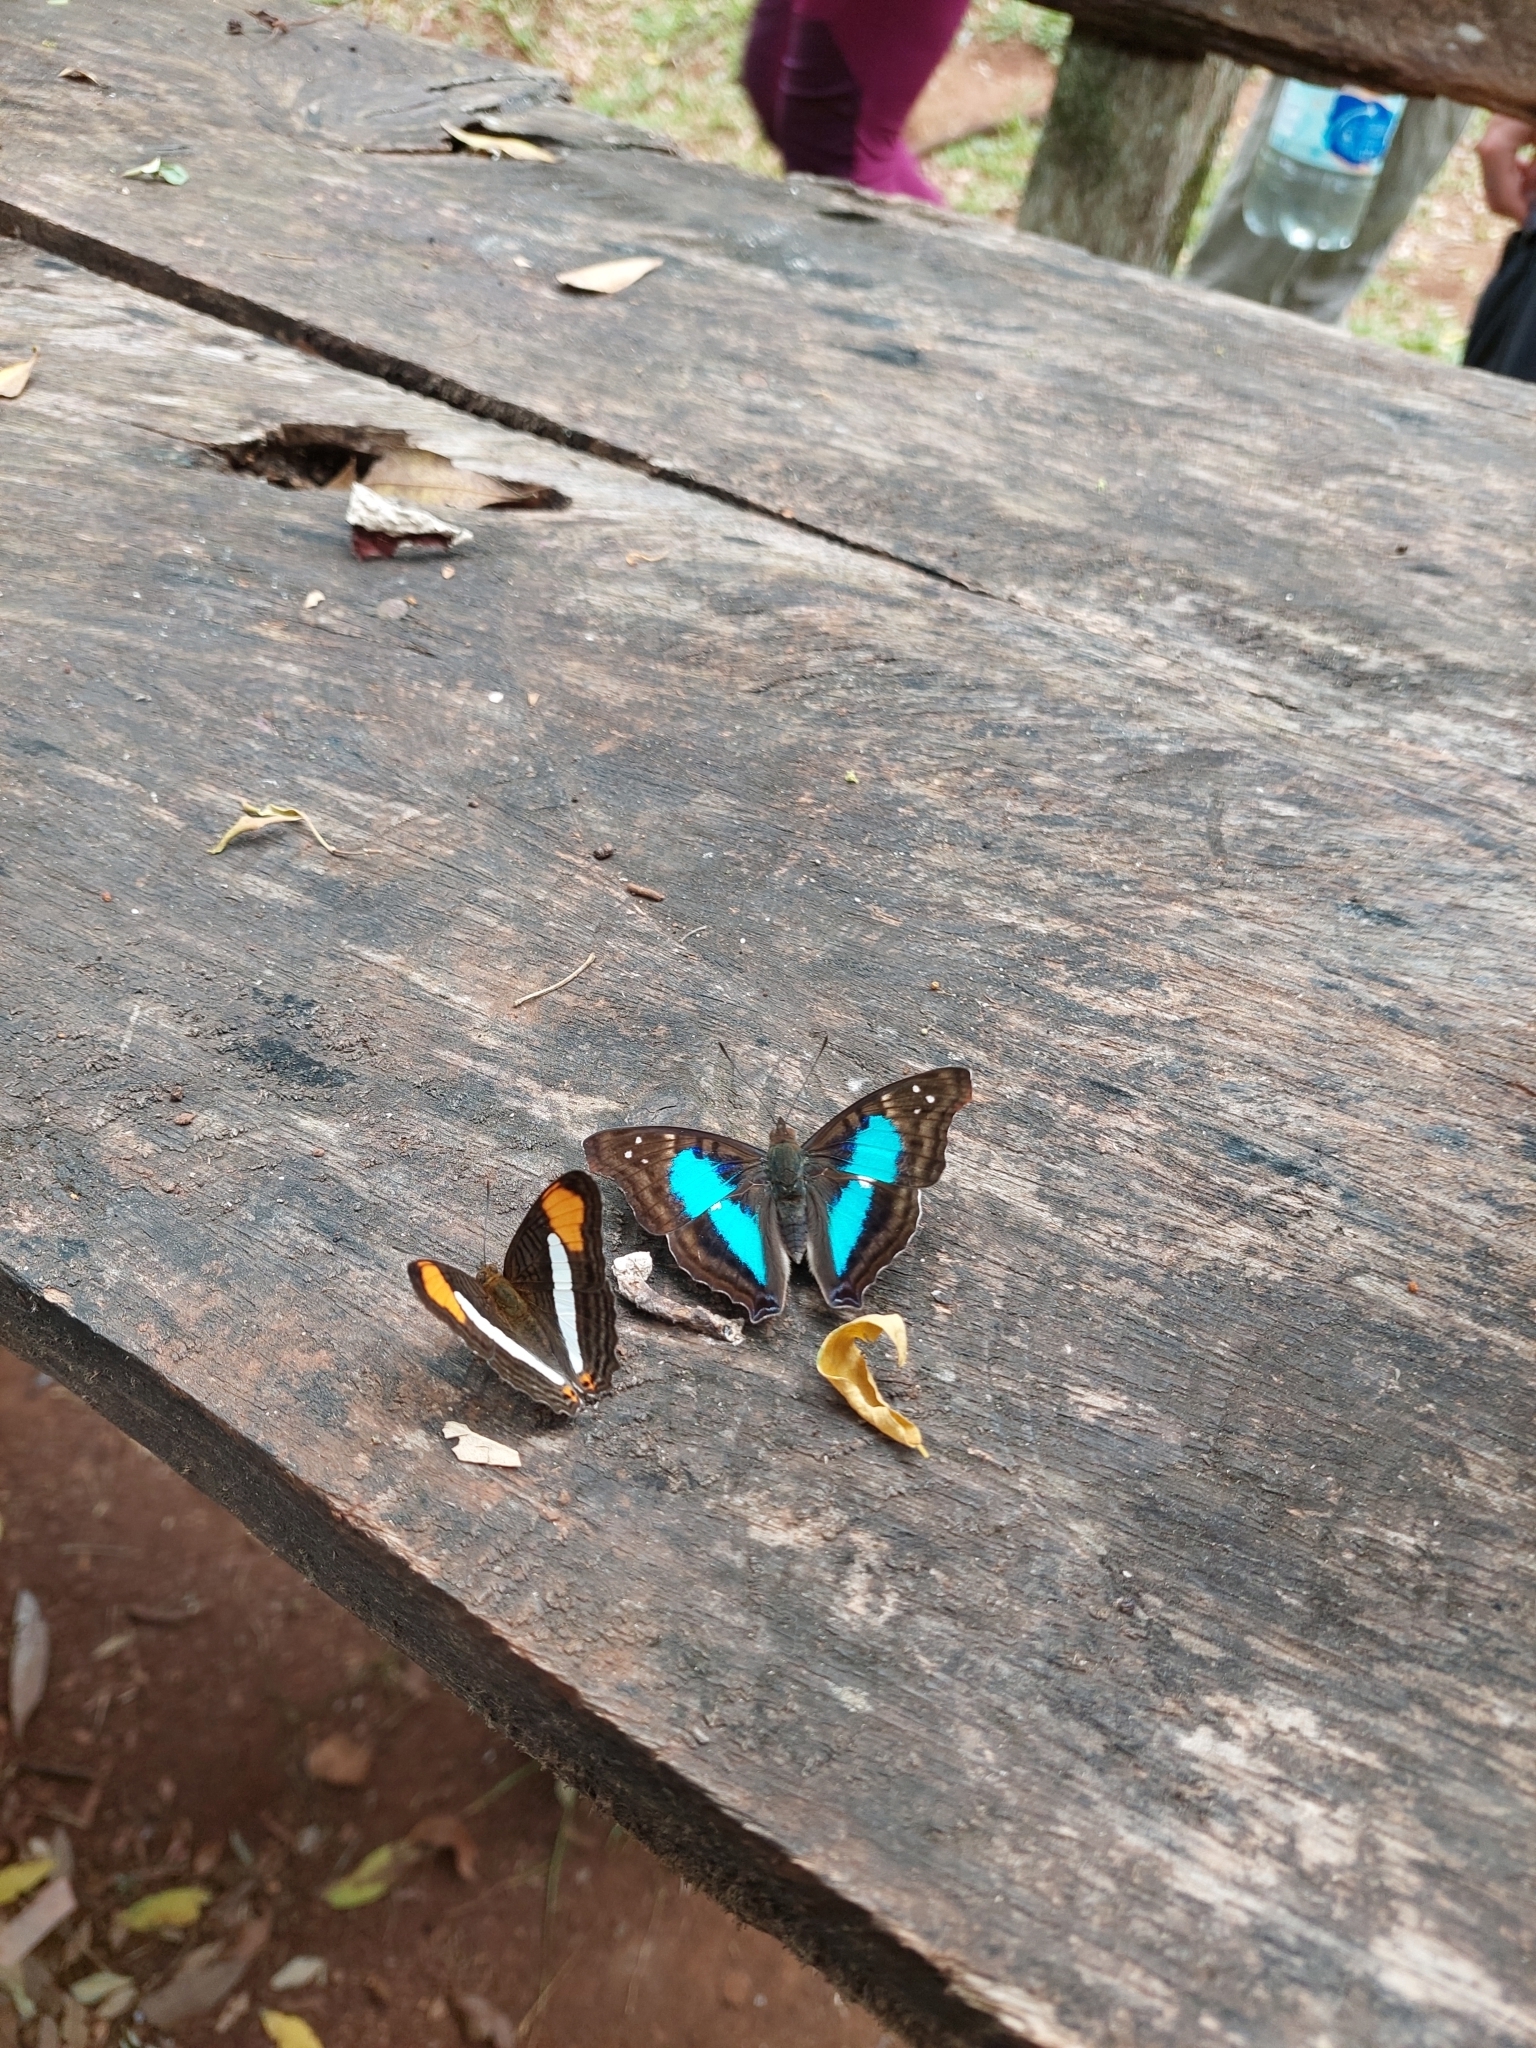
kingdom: Animalia
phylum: Arthropoda
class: Insecta
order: Lepidoptera
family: Nymphalidae
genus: Doxocopa
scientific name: Doxocopa laurentia
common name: Turquoise emperor
